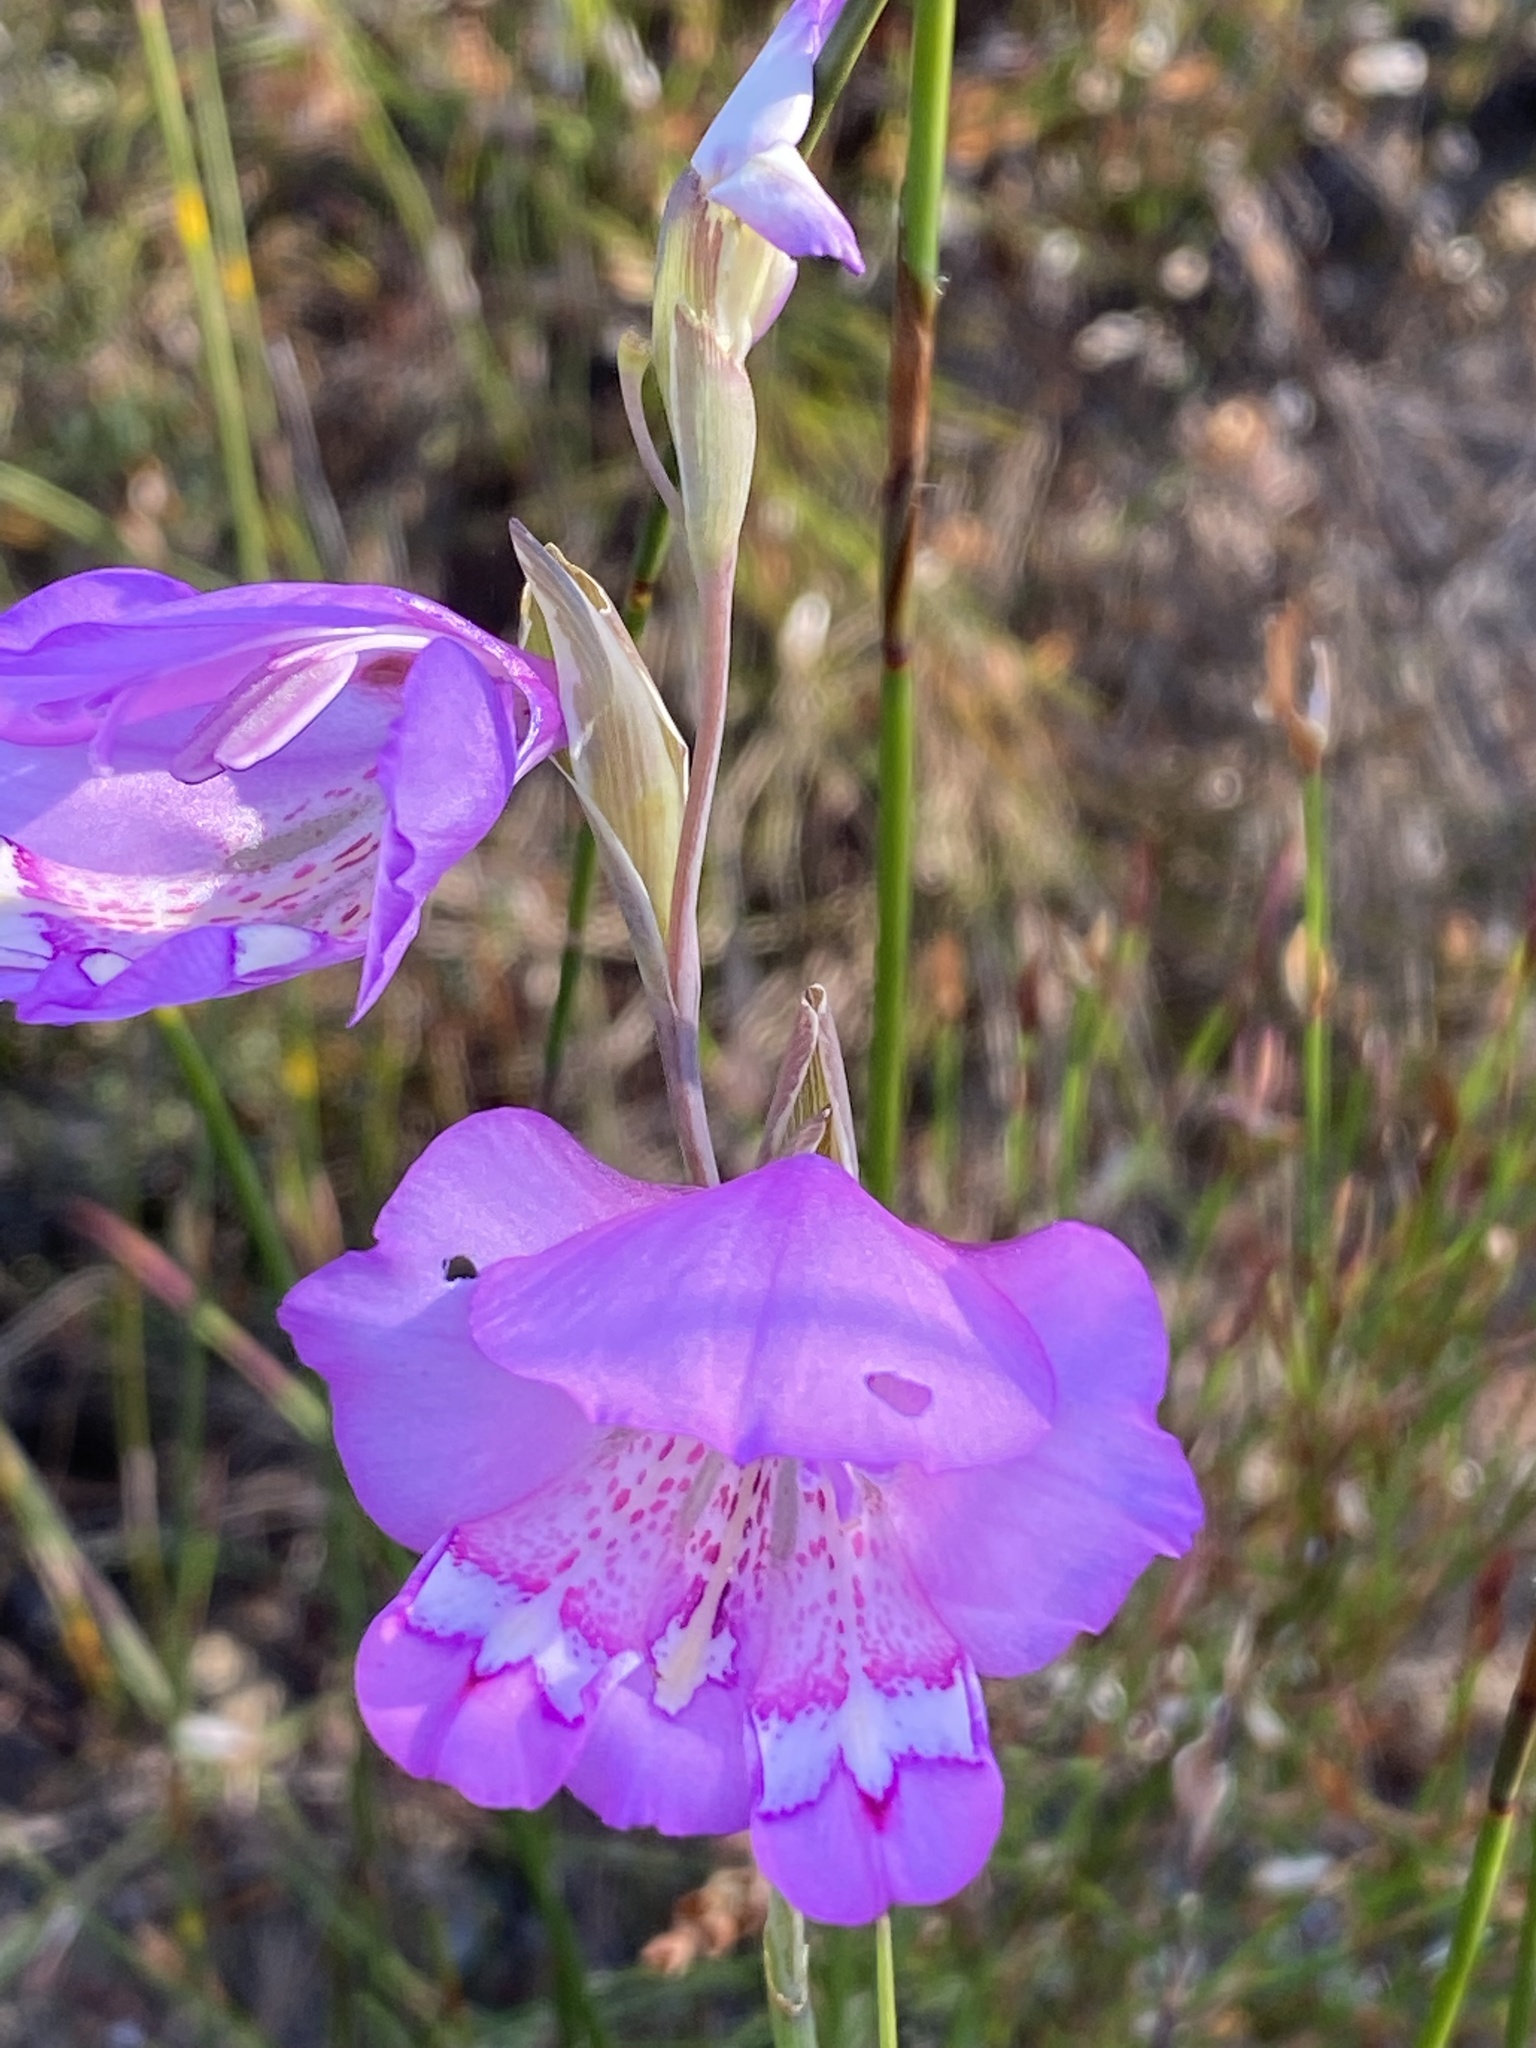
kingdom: Plantae
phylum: Tracheophyta
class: Liliopsida
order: Asparagales
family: Iridaceae
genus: Gladiolus
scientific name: Gladiolus rogersii
